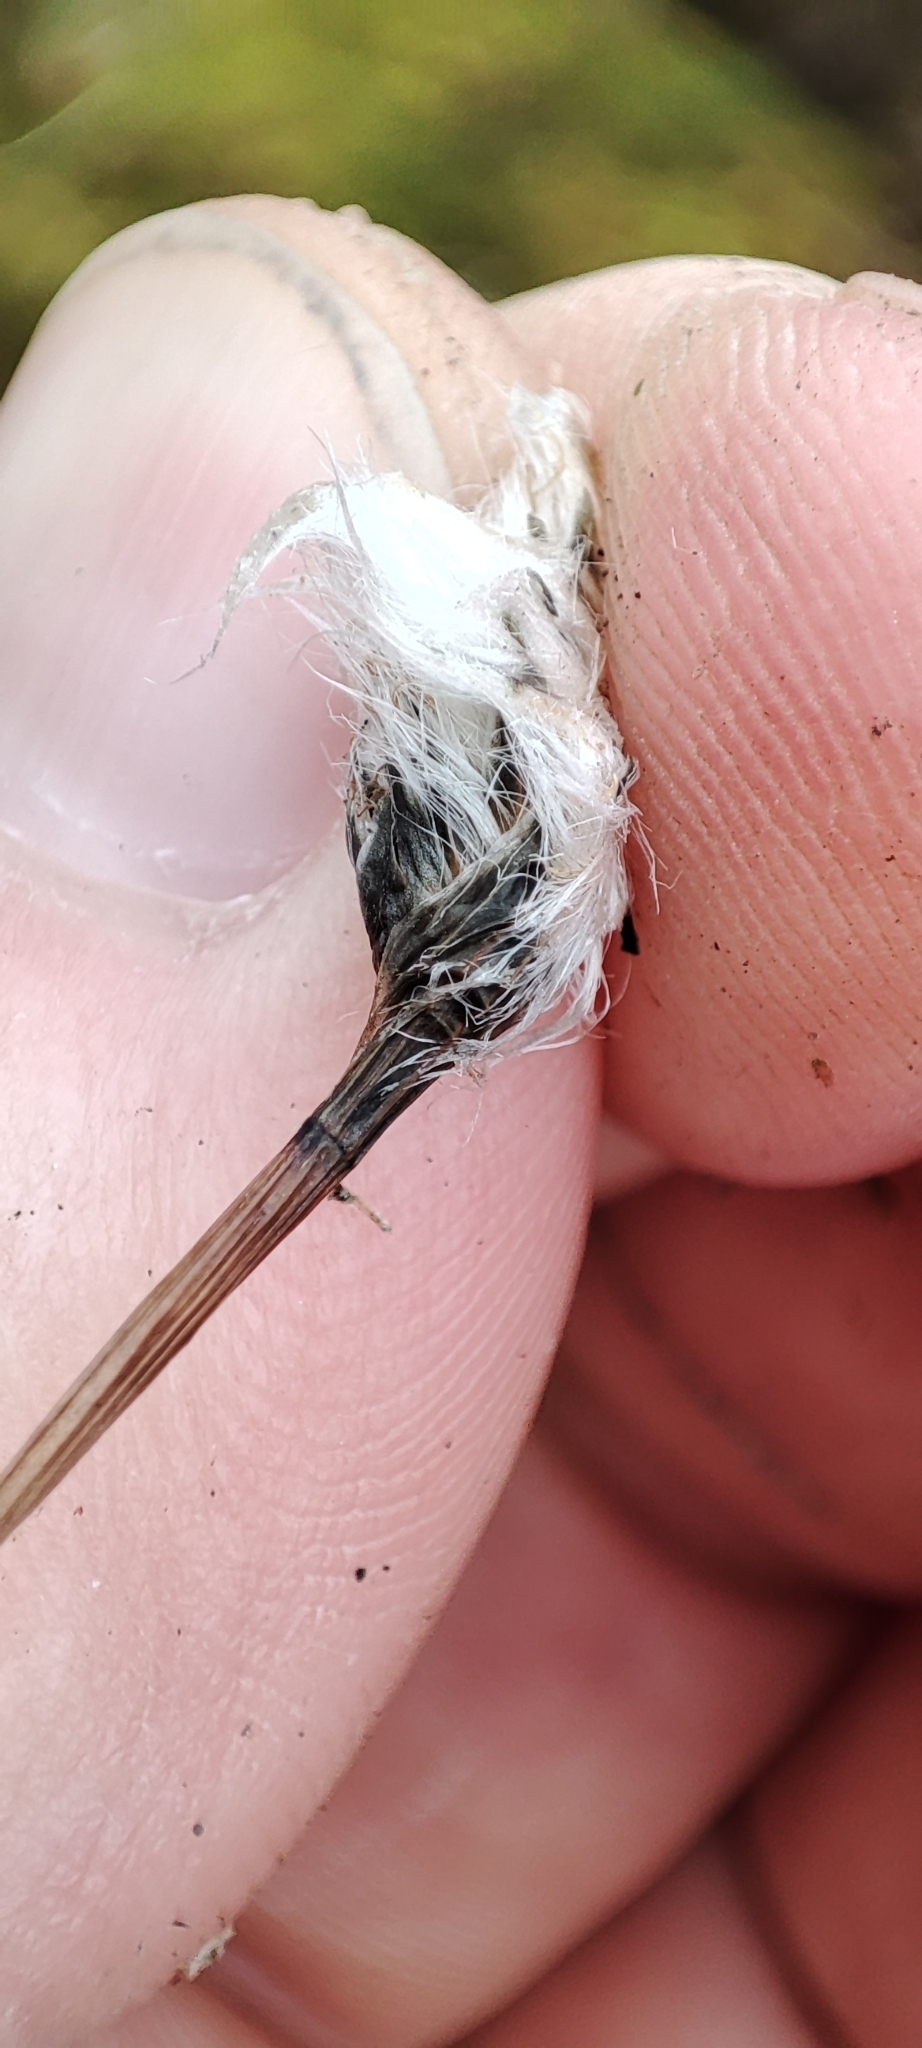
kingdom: Plantae
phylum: Tracheophyta
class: Liliopsida
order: Poales
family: Cyperaceae
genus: Eriophorum
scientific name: Eriophorum vaginatum
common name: Hare's-tail cottongrass
